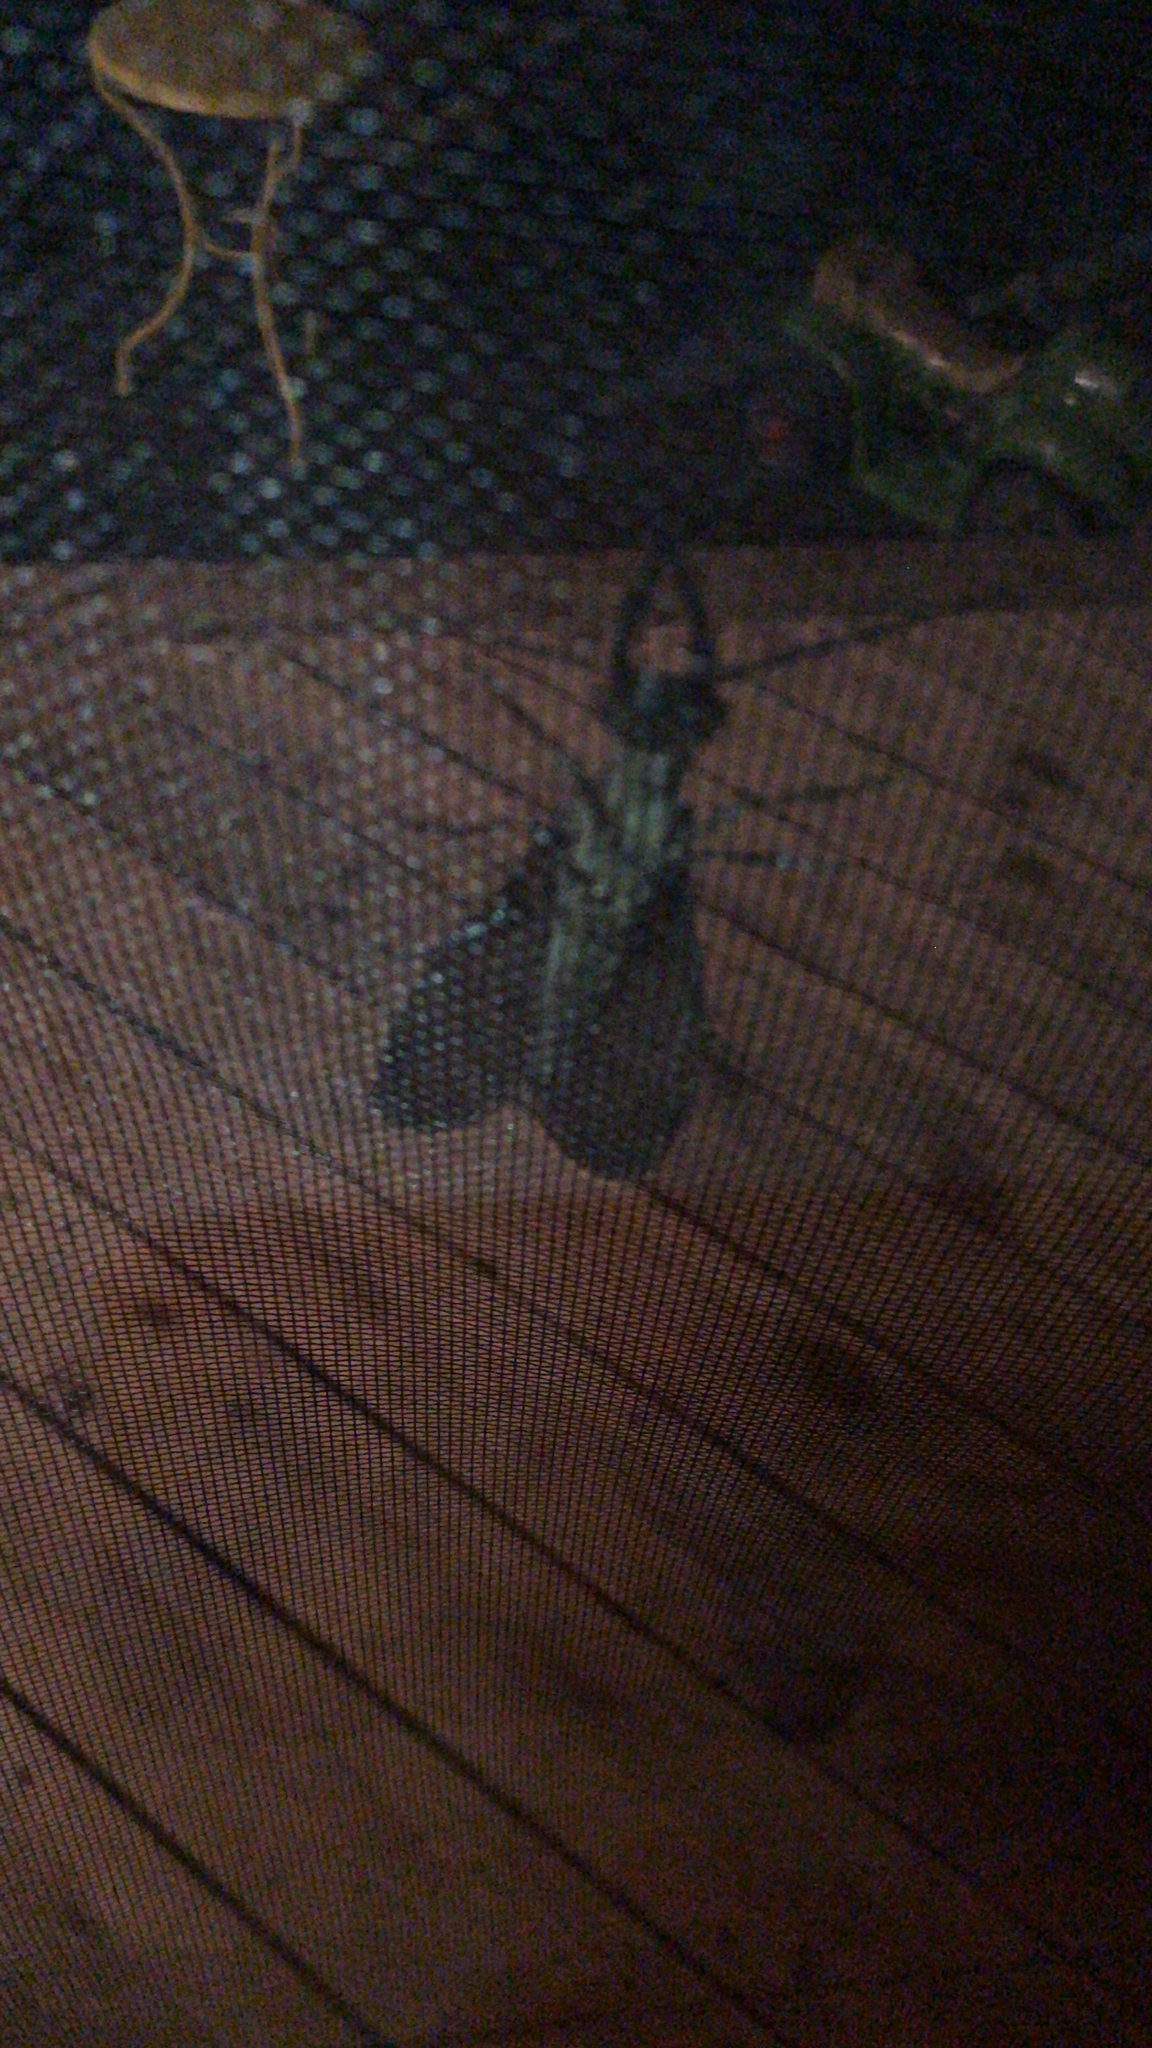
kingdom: Animalia
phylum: Arthropoda
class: Insecta
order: Megaloptera
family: Corydalidae
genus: Corydalus
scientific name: Corydalus cornutus
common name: Dobsonfly
